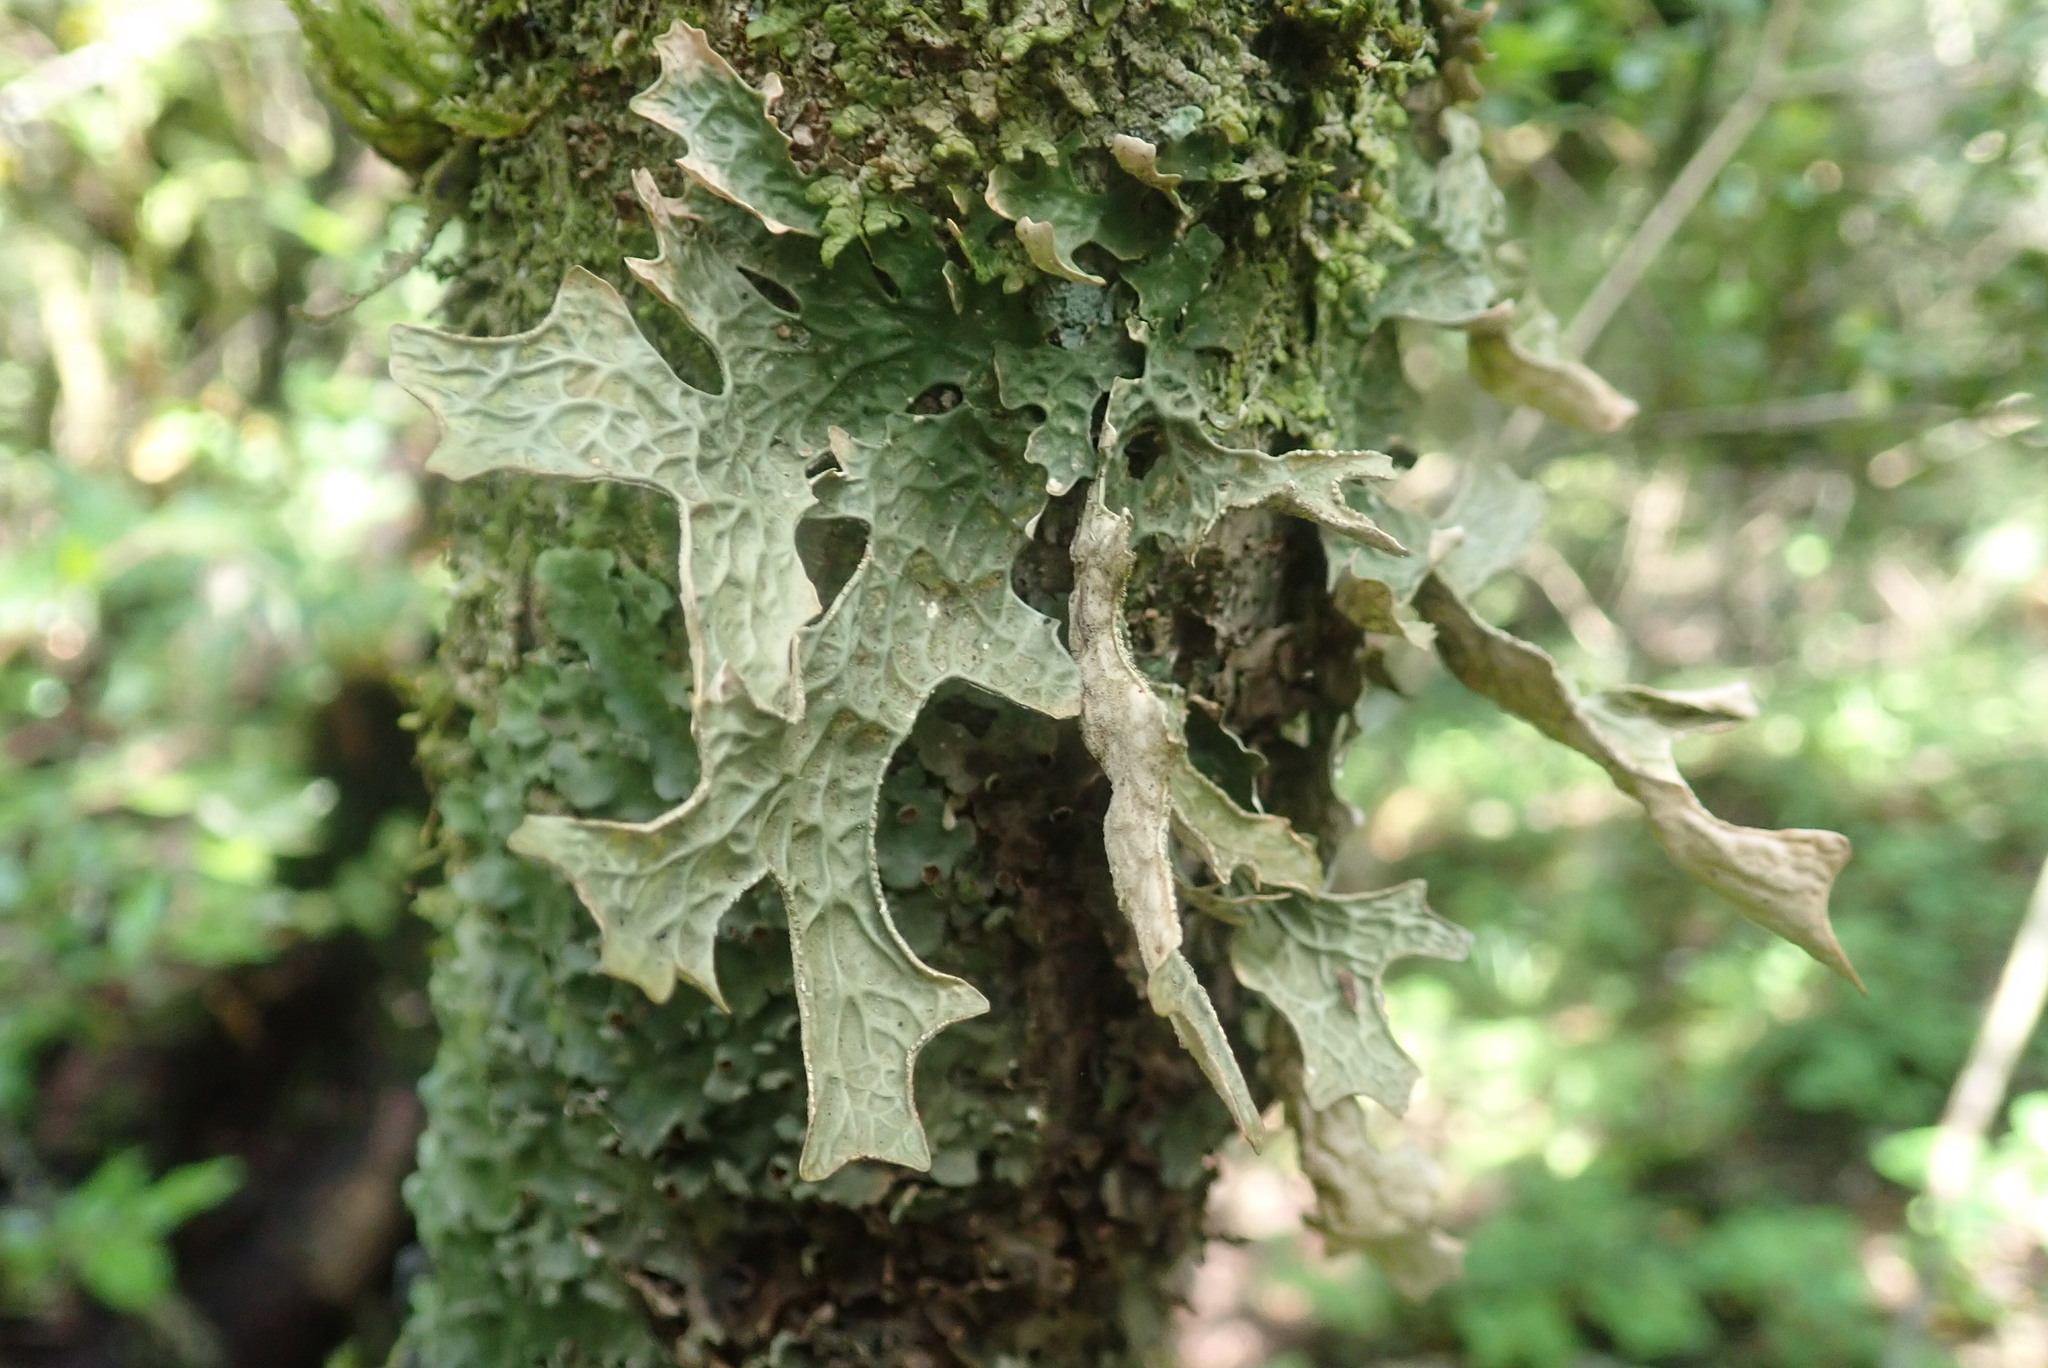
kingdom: Fungi
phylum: Ascomycota
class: Lecanoromycetes
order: Peltigerales
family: Lobariaceae
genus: Lobaria
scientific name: Lobaria pulmonaria
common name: Lungwort
